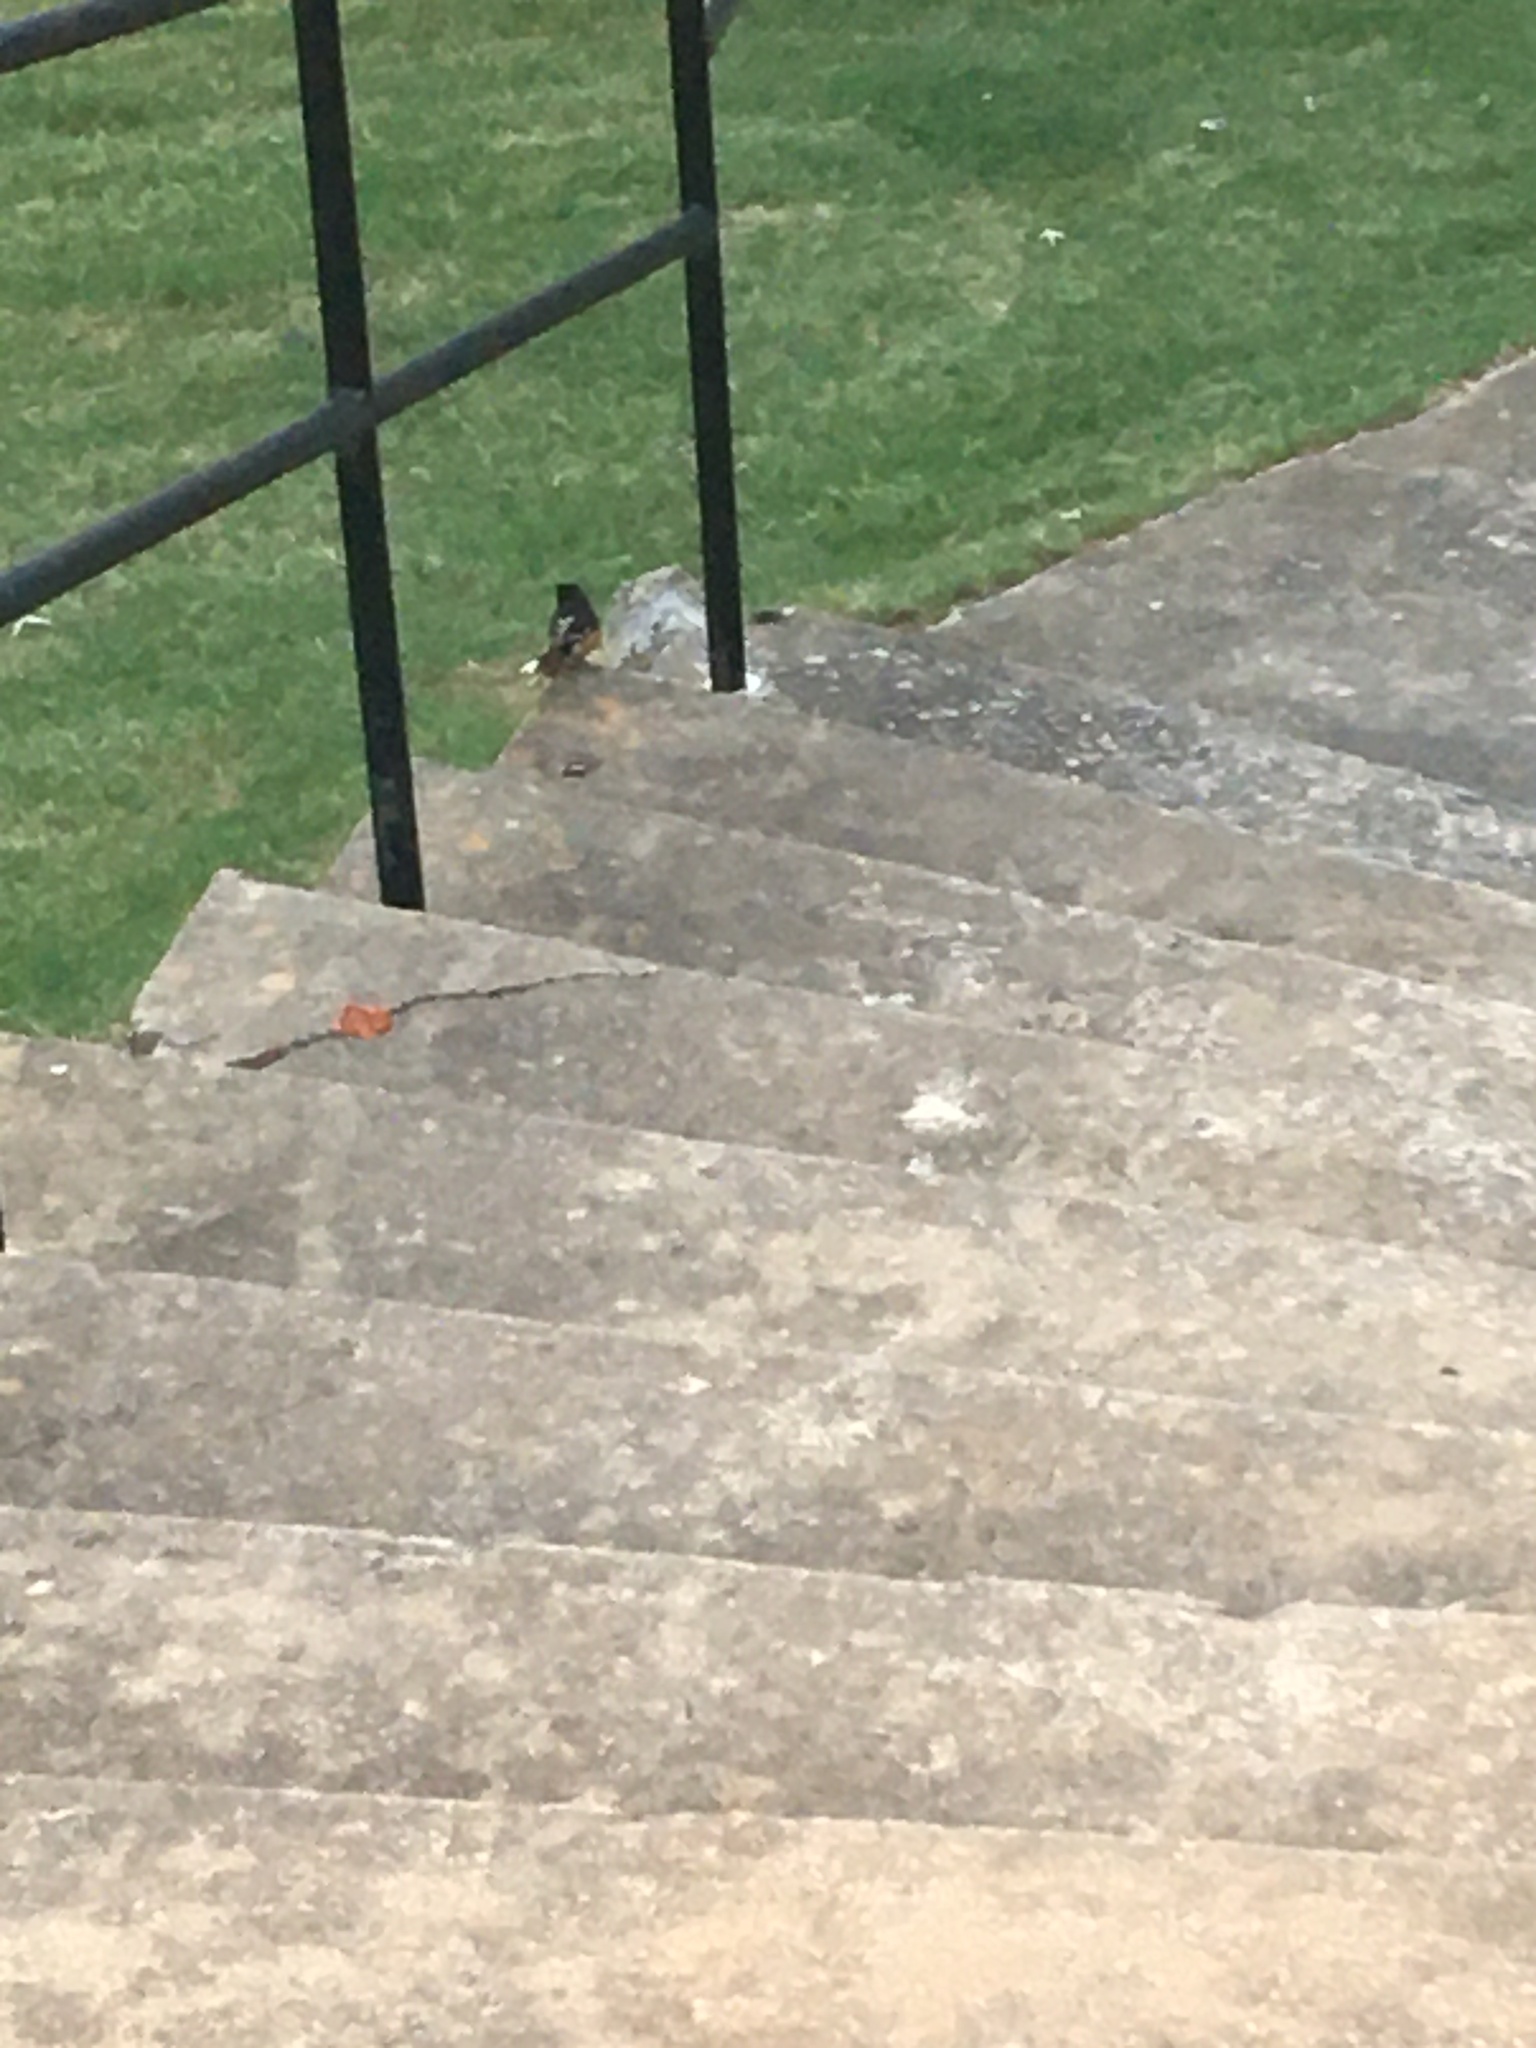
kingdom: Animalia
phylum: Chordata
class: Aves
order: Passeriformes
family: Passerellidae
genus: Pipilo
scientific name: Pipilo erythrophthalmus
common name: Eastern towhee
